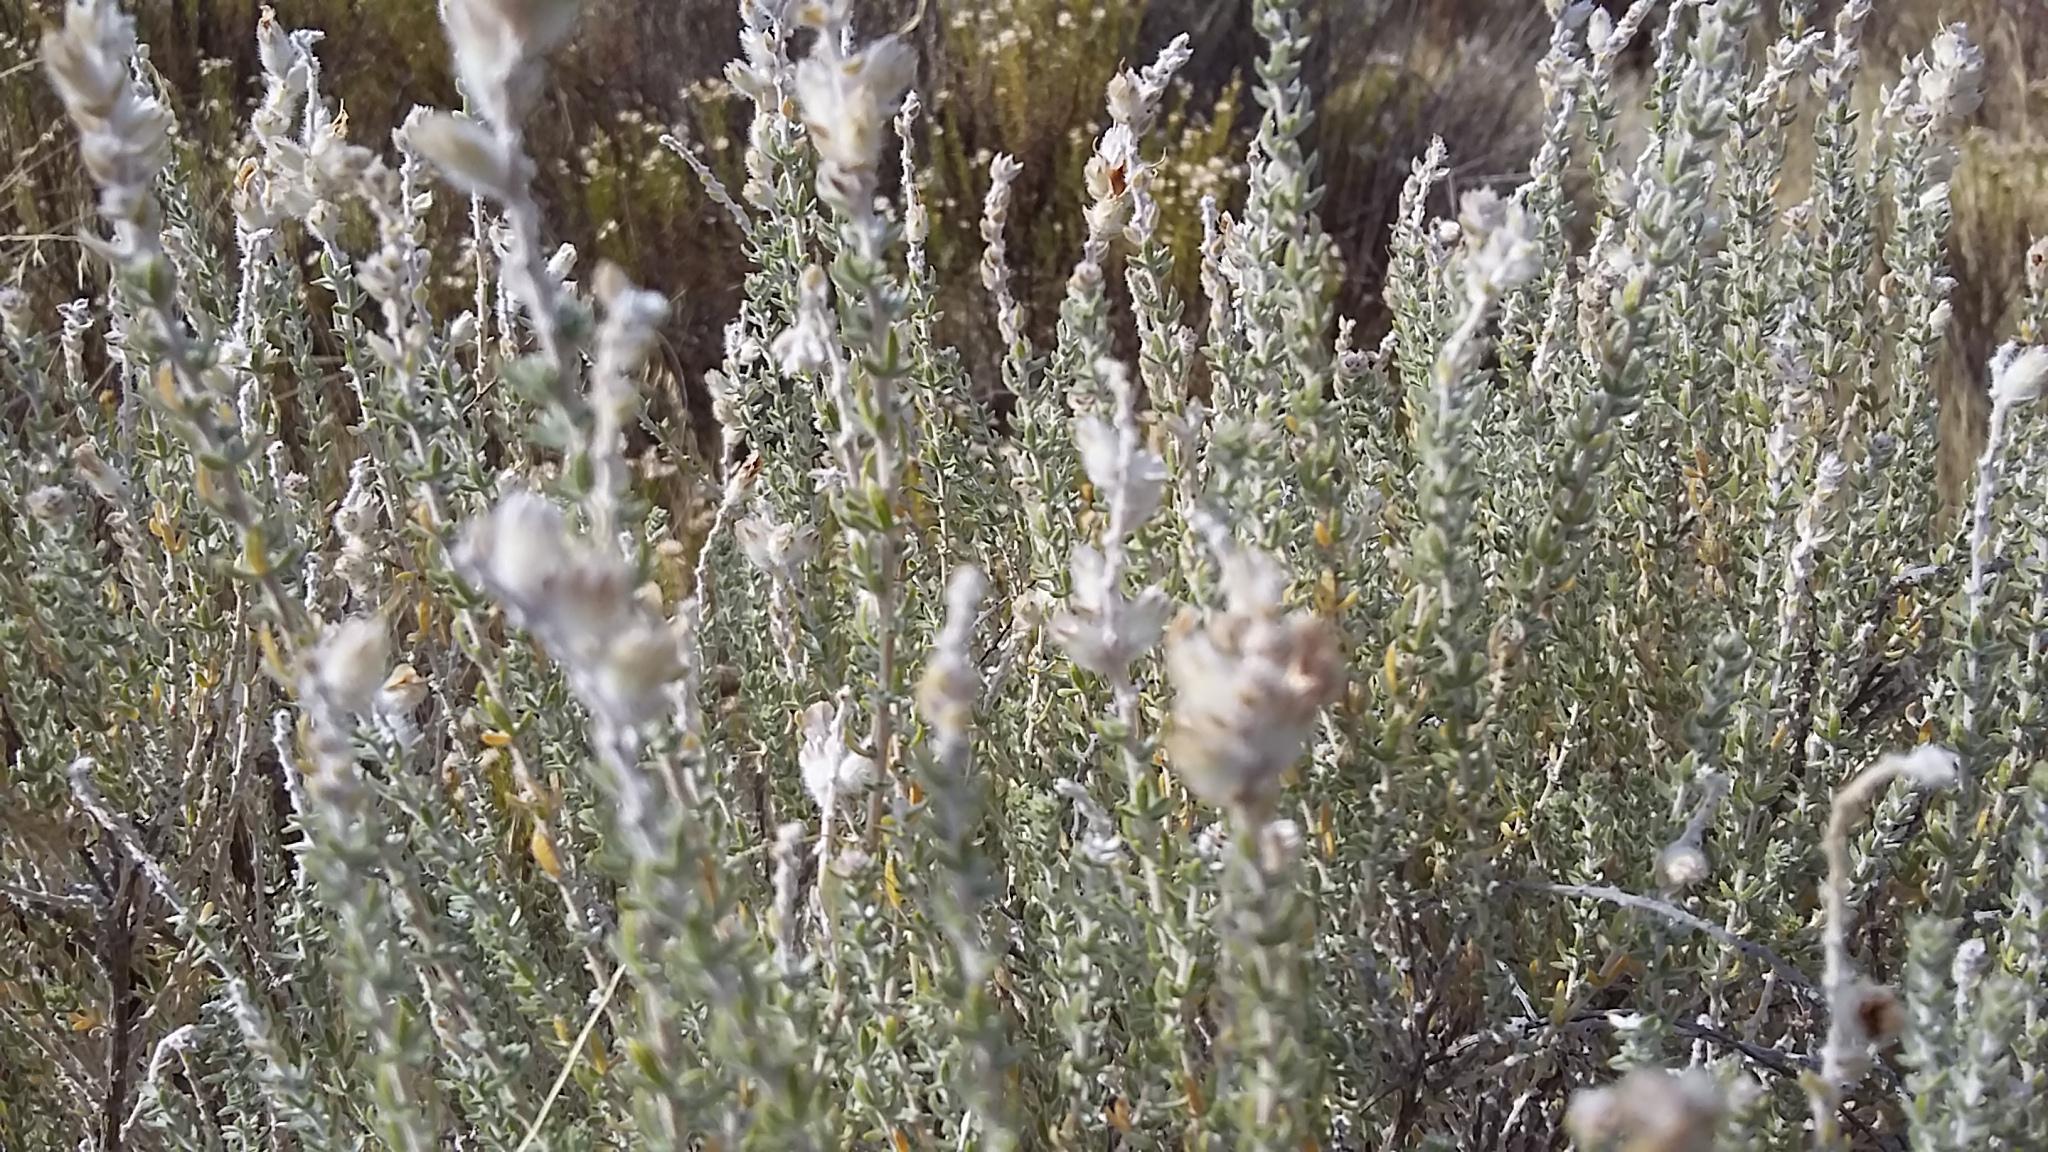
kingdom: Plantae
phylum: Tracheophyta
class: Magnoliopsida
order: Fabales
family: Fabaceae
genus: Aspalathus
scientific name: Aspalathus quinquefolia
